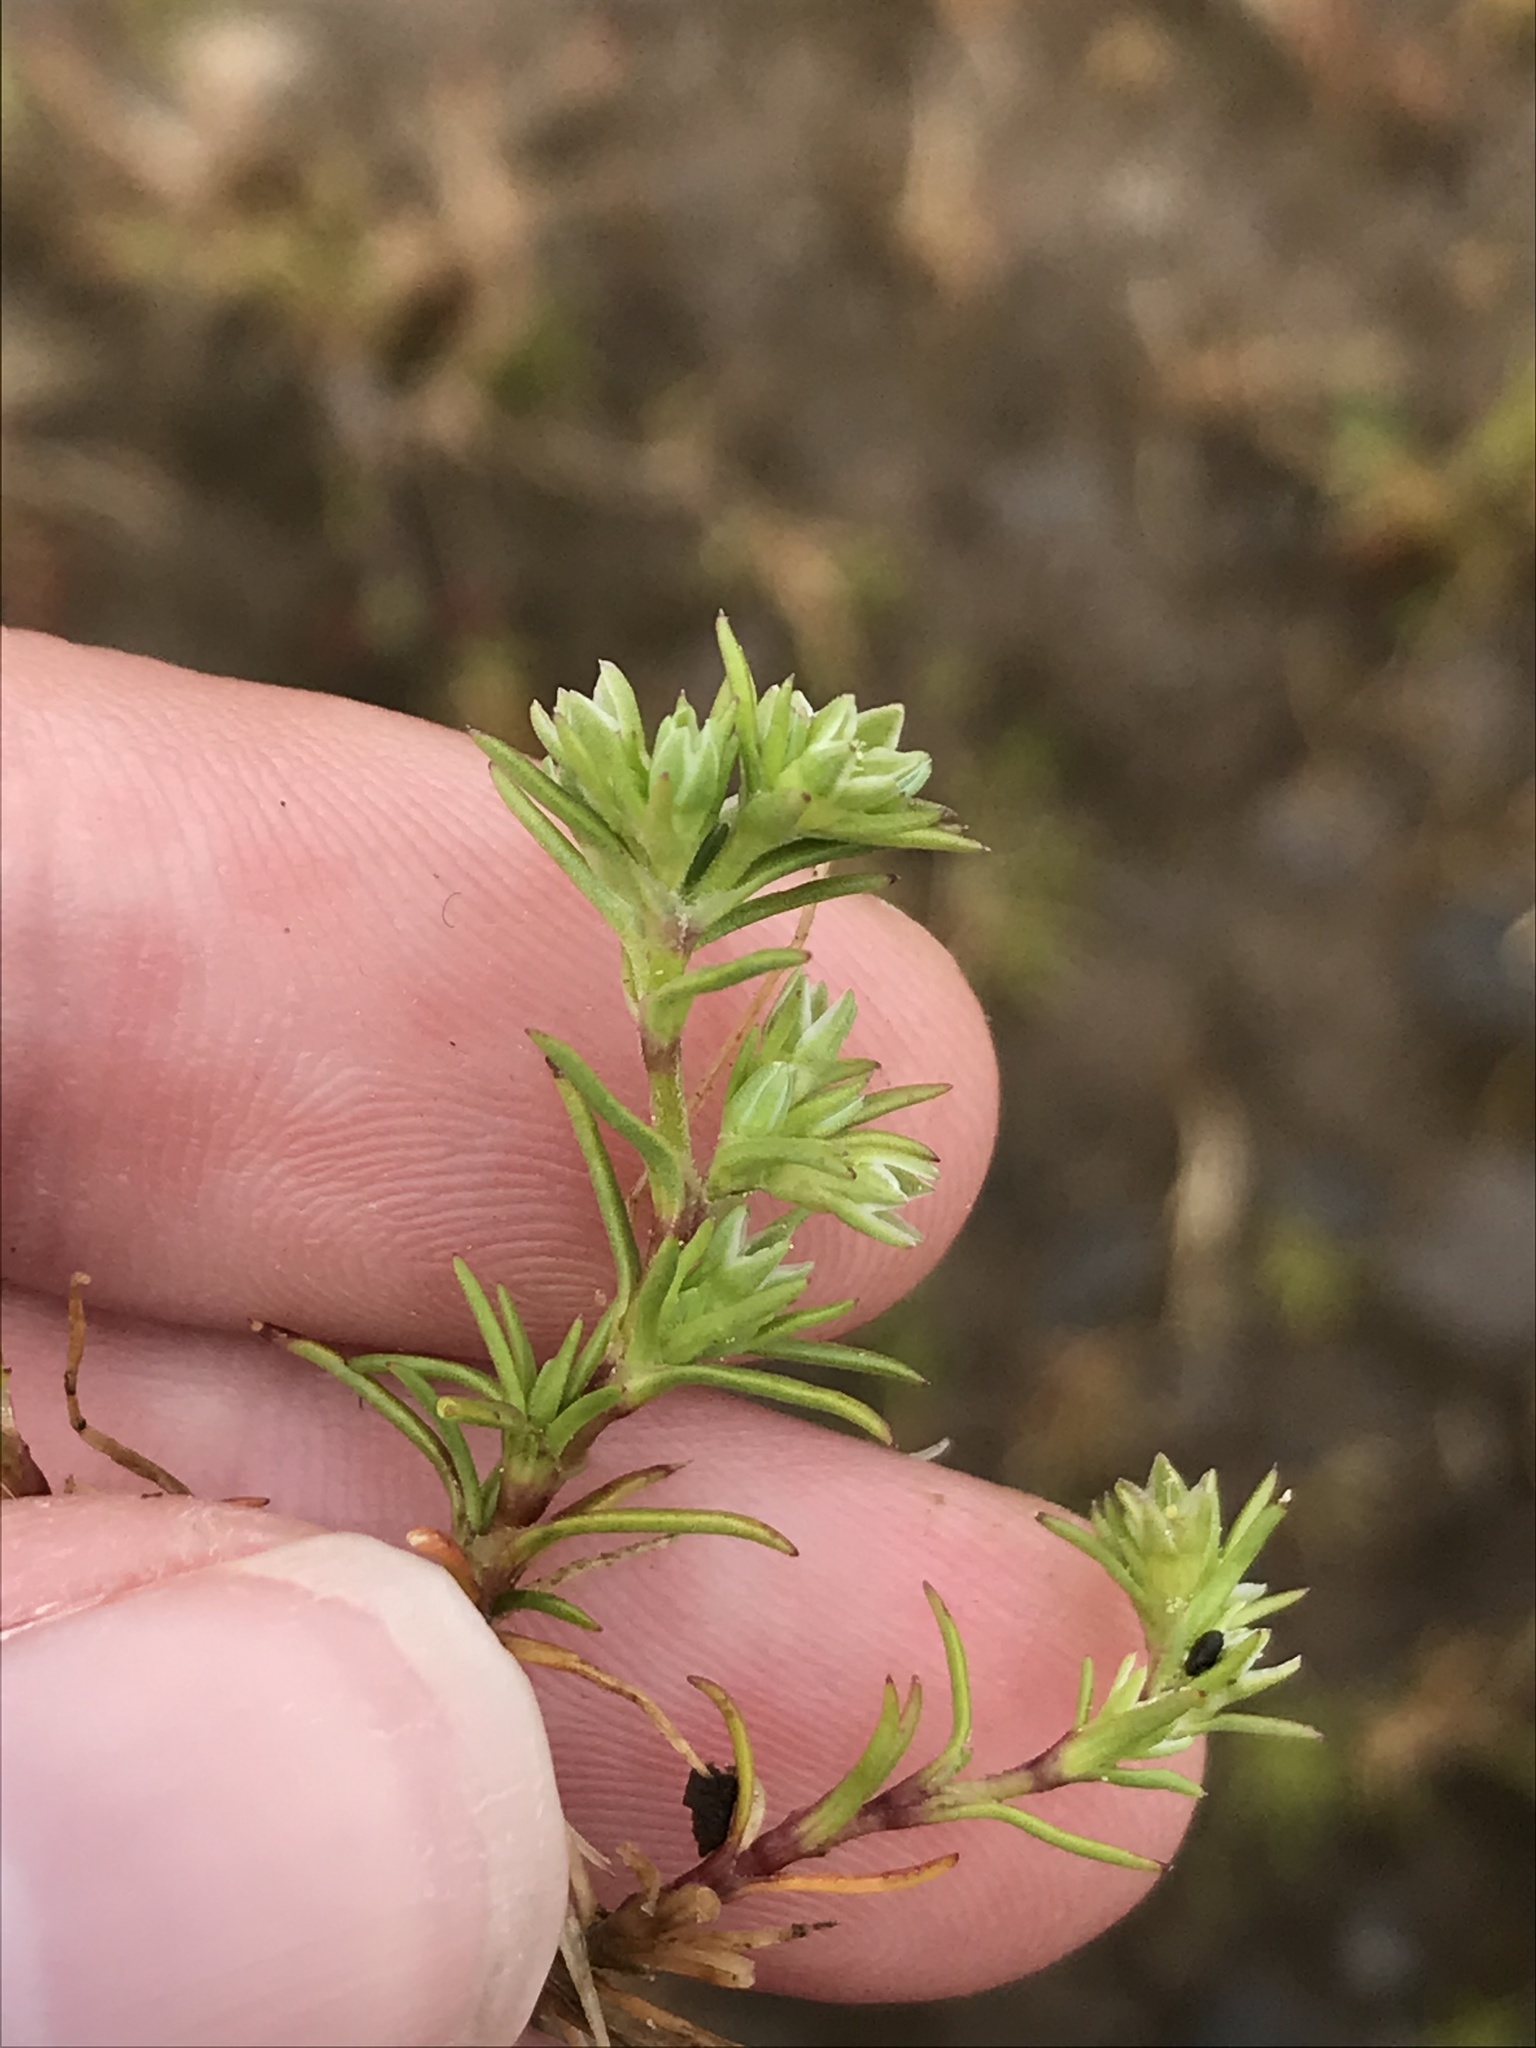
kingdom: Plantae
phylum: Tracheophyta
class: Magnoliopsida
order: Caryophyllales
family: Caryophyllaceae
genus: Scleranthus
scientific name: Scleranthus annuus
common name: Annual knawel
